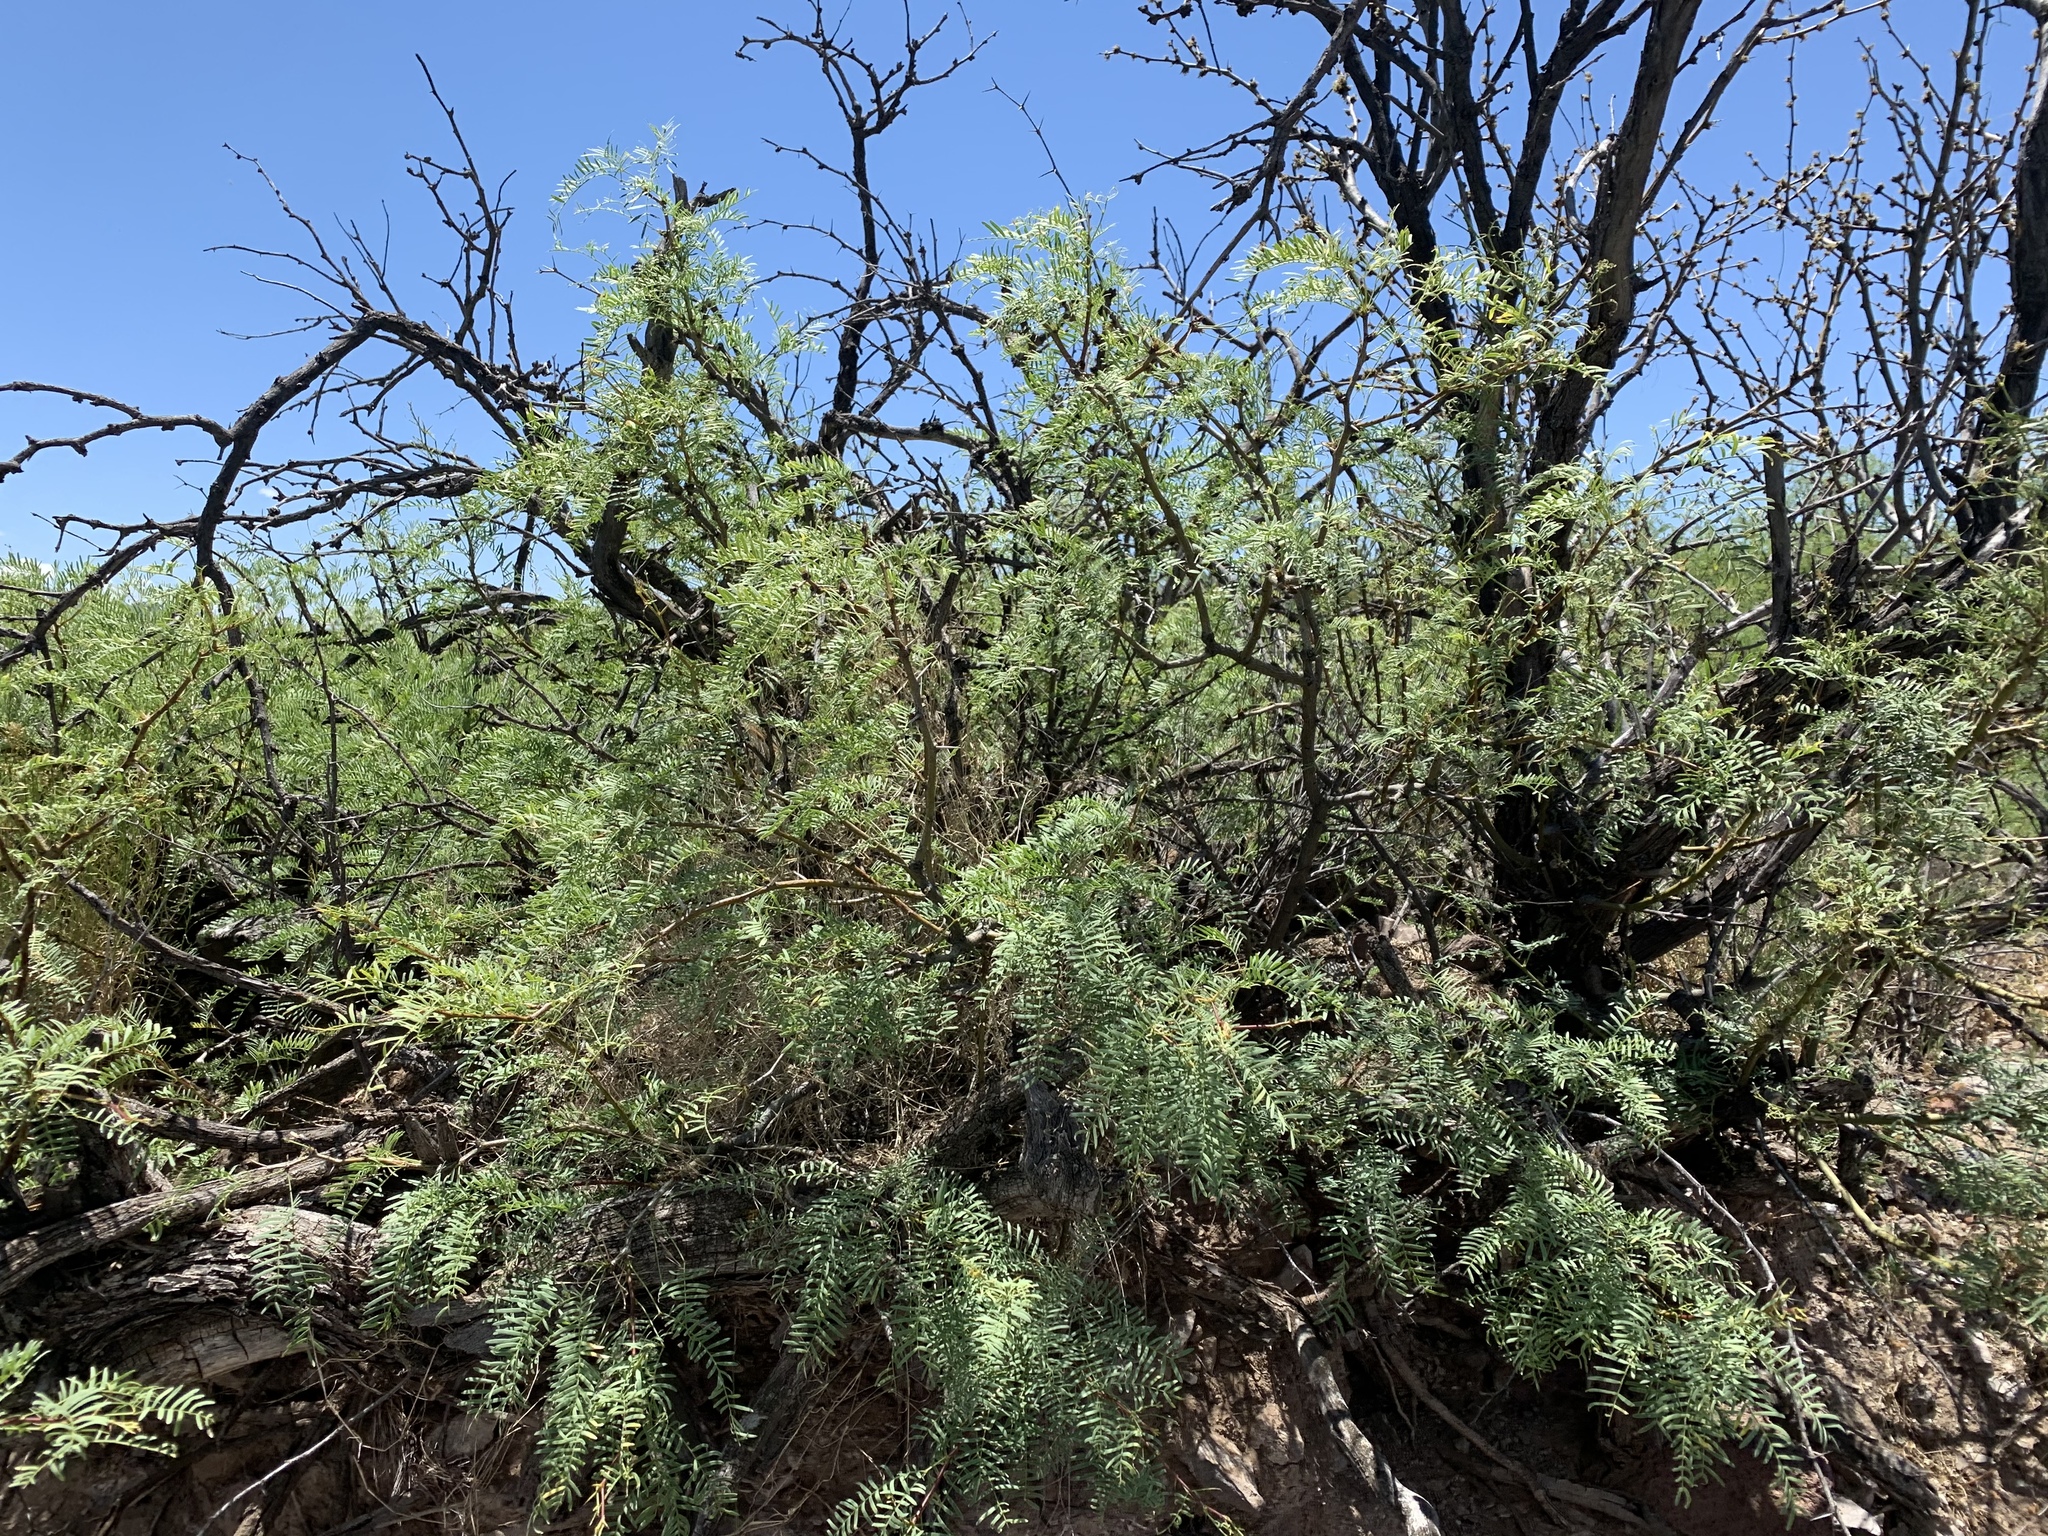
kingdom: Plantae
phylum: Tracheophyta
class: Magnoliopsida
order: Fabales
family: Fabaceae
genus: Prosopis
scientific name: Prosopis glandulosa
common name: Honey mesquite
